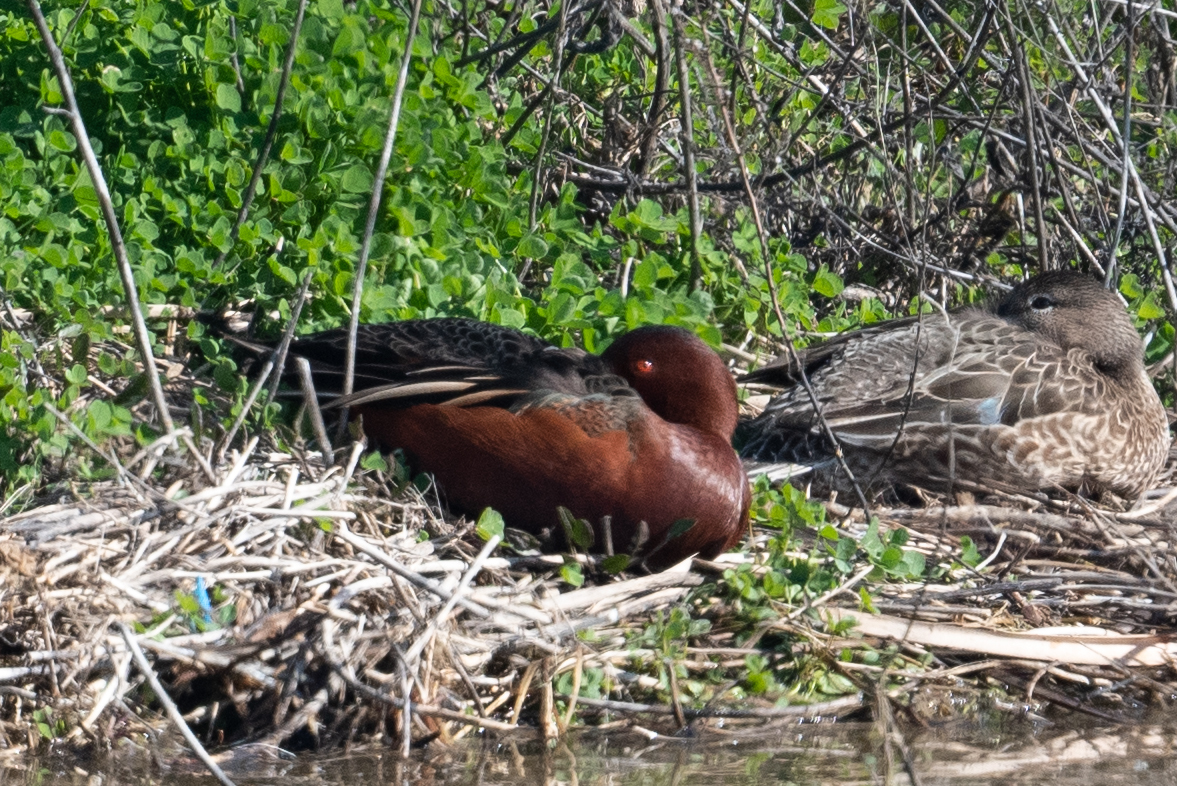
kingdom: Animalia
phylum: Chordata
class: Aves
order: Anseriformes
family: Anatidae
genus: Spatula
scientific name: Spatula cyanoptera
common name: Cinnamon teal
